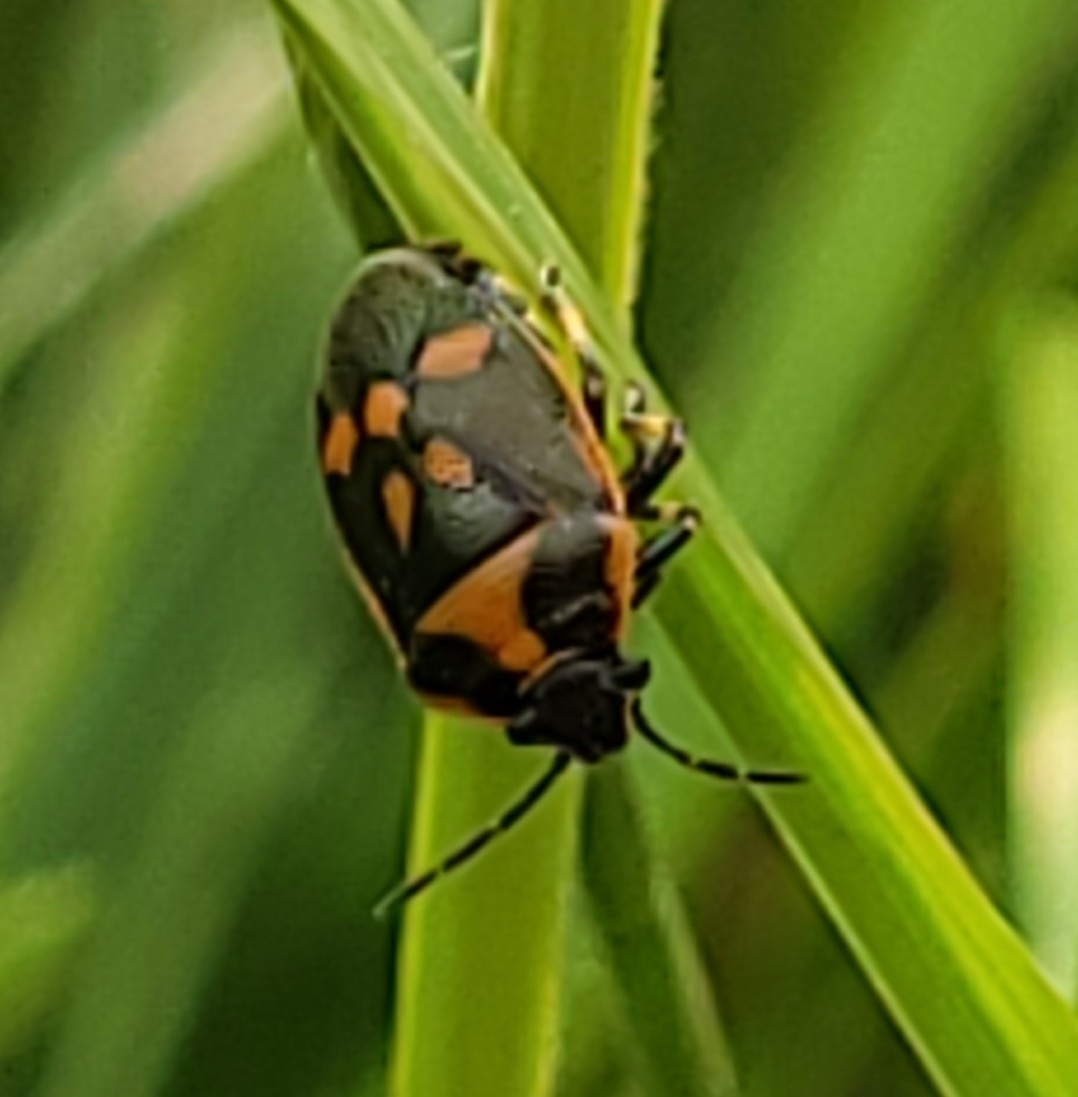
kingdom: Animalia
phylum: Arthropoda
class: Insecta
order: Hemiptera
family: Pentatomidae
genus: Eurydema
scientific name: Eurydema oleracea
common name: Cabbage bug
